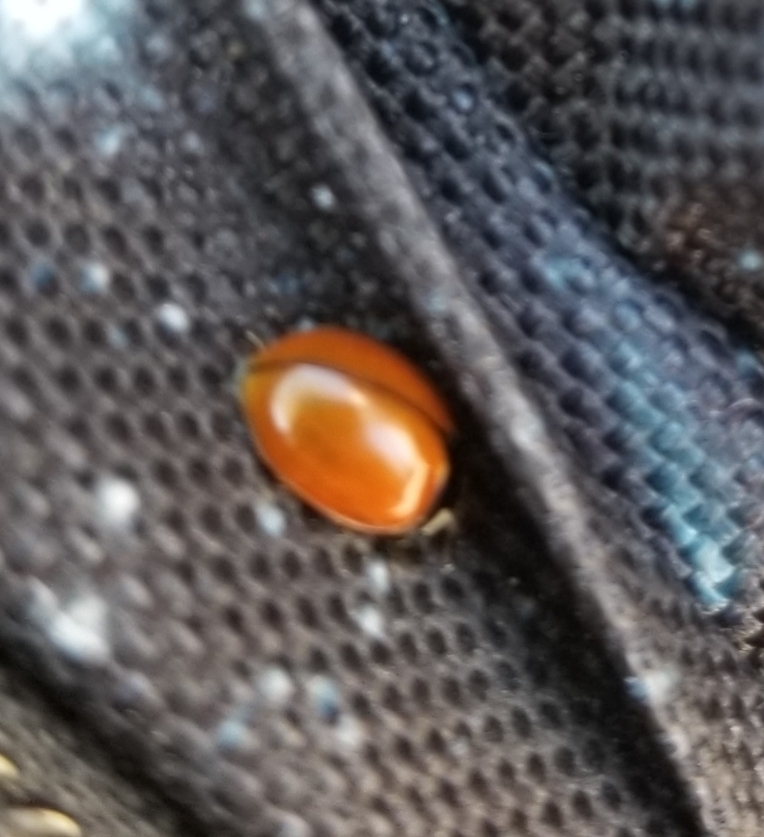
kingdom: Animalia
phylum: Arthropoda
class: Insecta
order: Coleoptera
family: Coccinellidae
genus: Coccinella
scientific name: Coccinella californica
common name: Lady beetle
